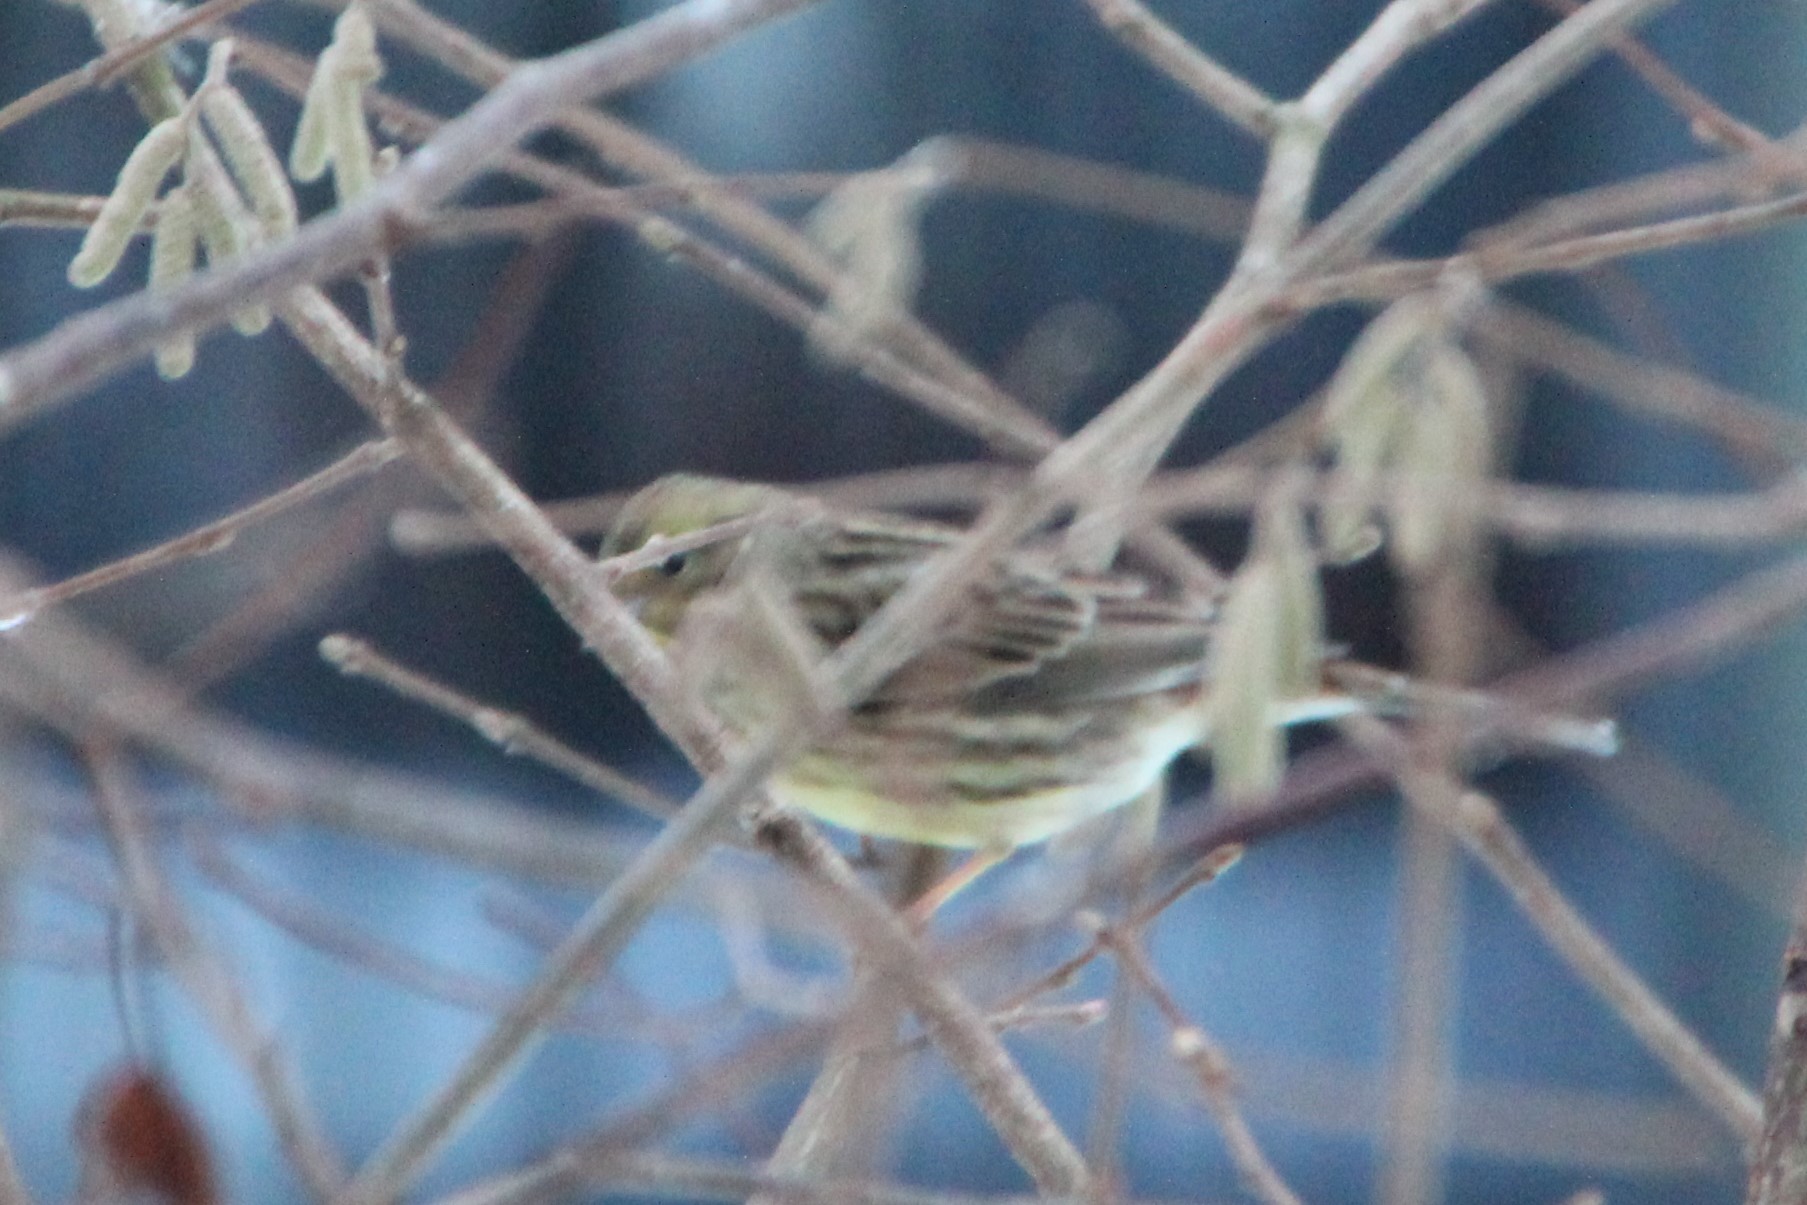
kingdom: Animalia
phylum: Chordata
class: Aves
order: Passeriformes
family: Emberizidae
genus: Emberiza
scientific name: Emberiza citrinella
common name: Yellowhammer
